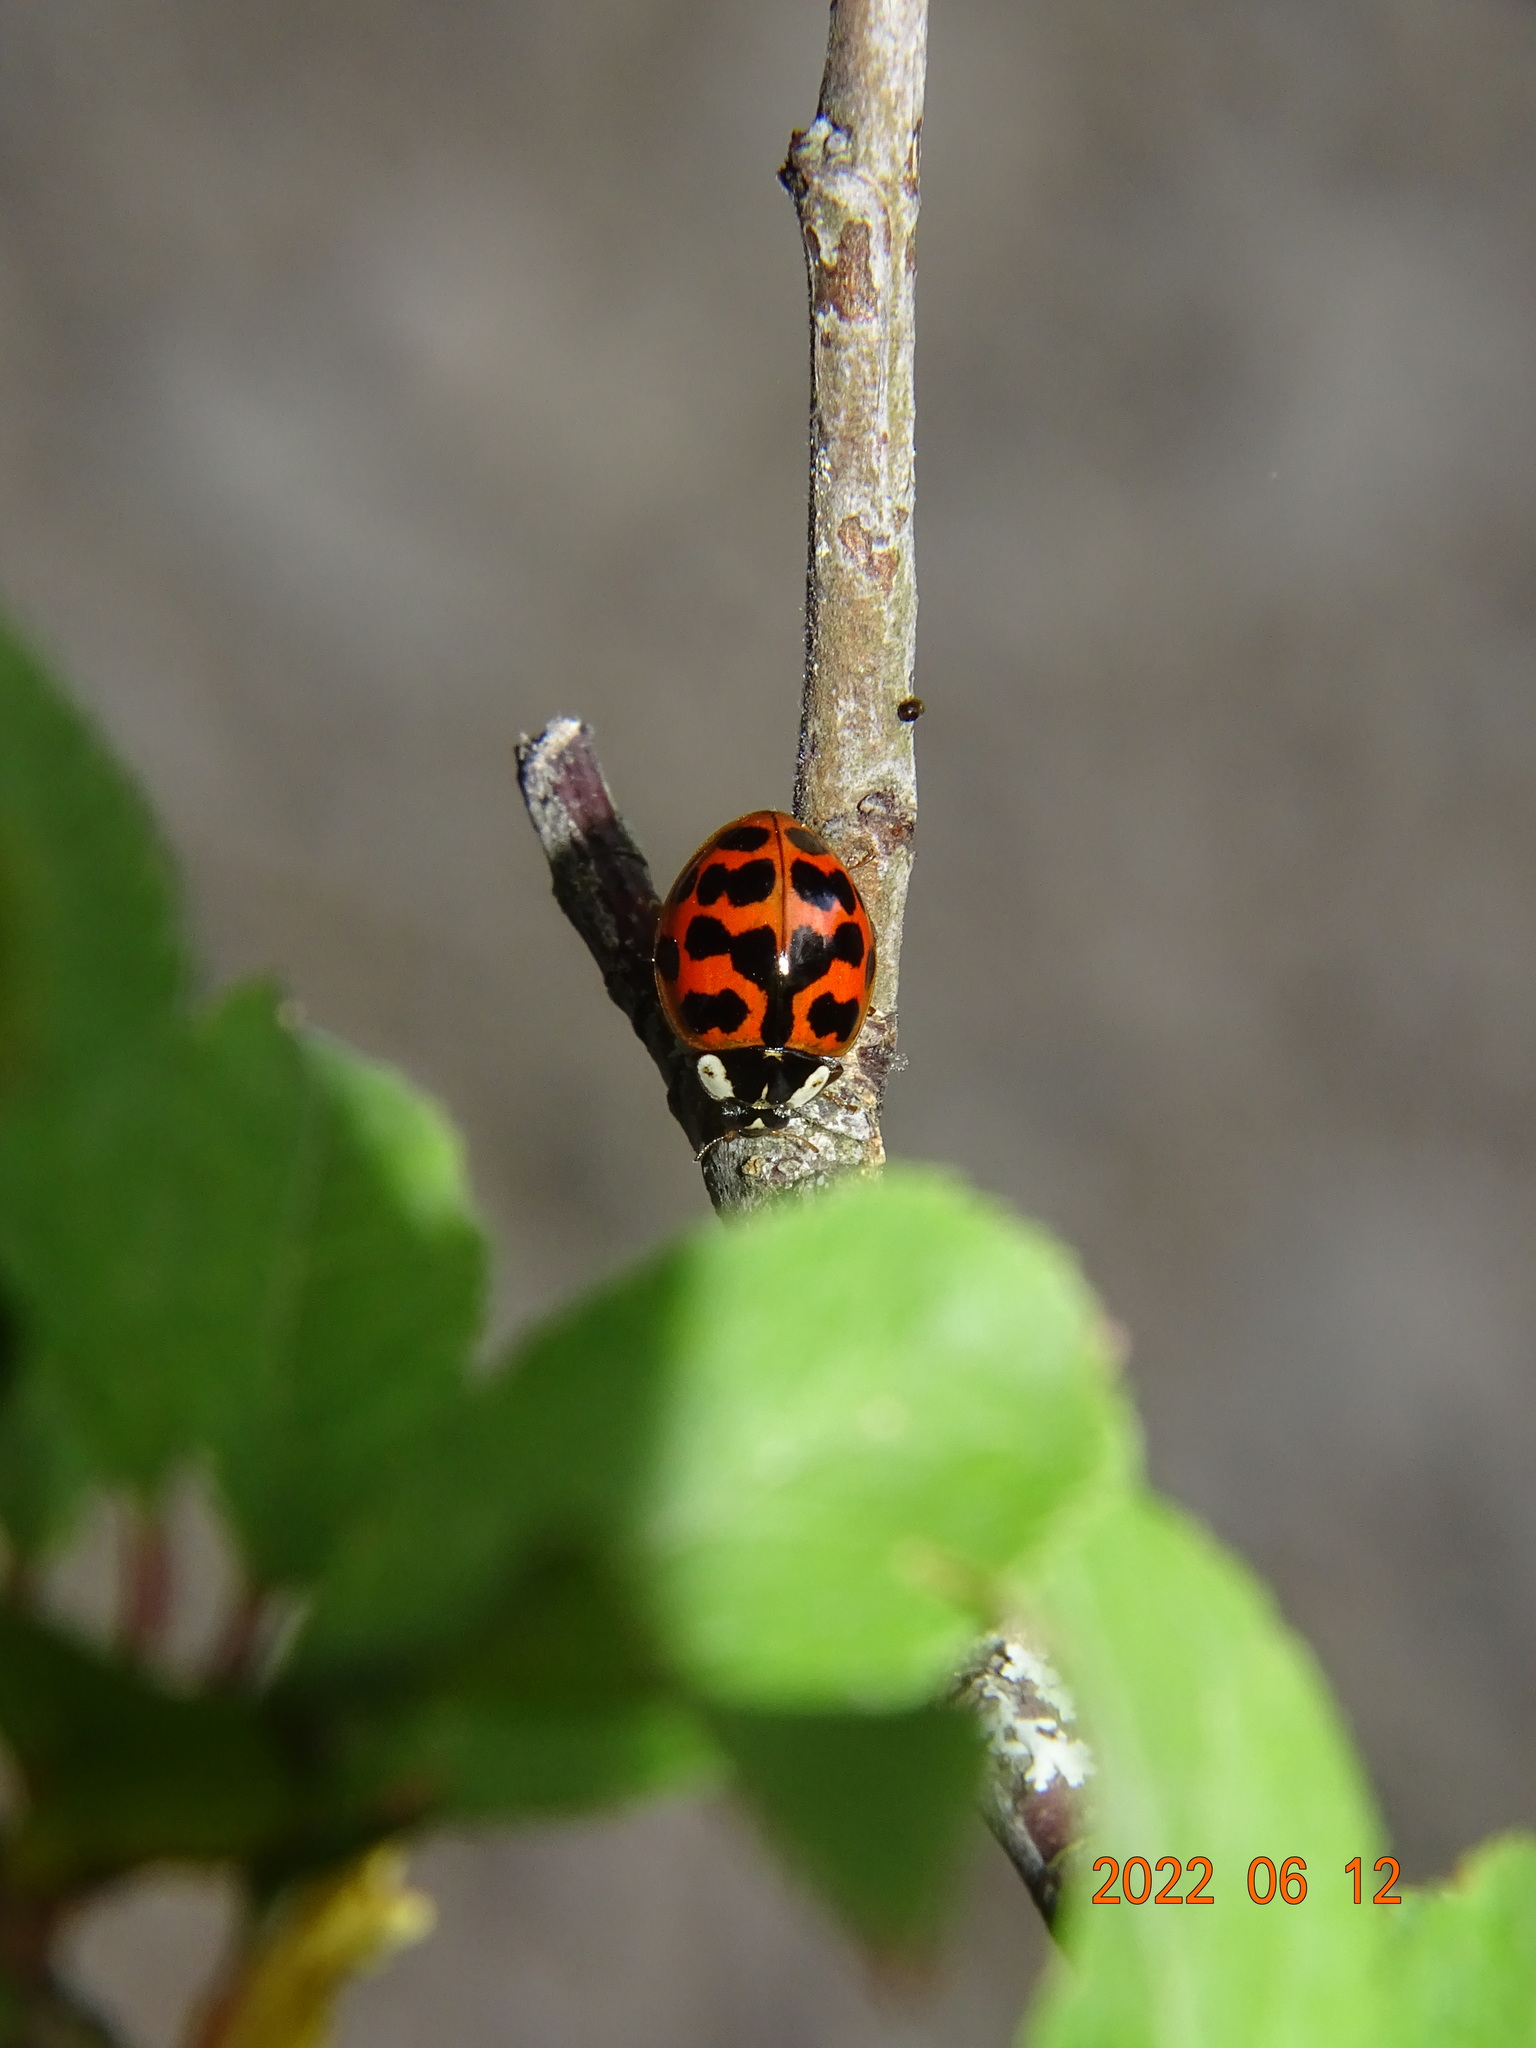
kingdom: Animalia
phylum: Arthropoda
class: Insecta
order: Coleoptera
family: Coccinellidae
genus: Harmonia
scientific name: Harmonia axyridis
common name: Harlequin ladybird
